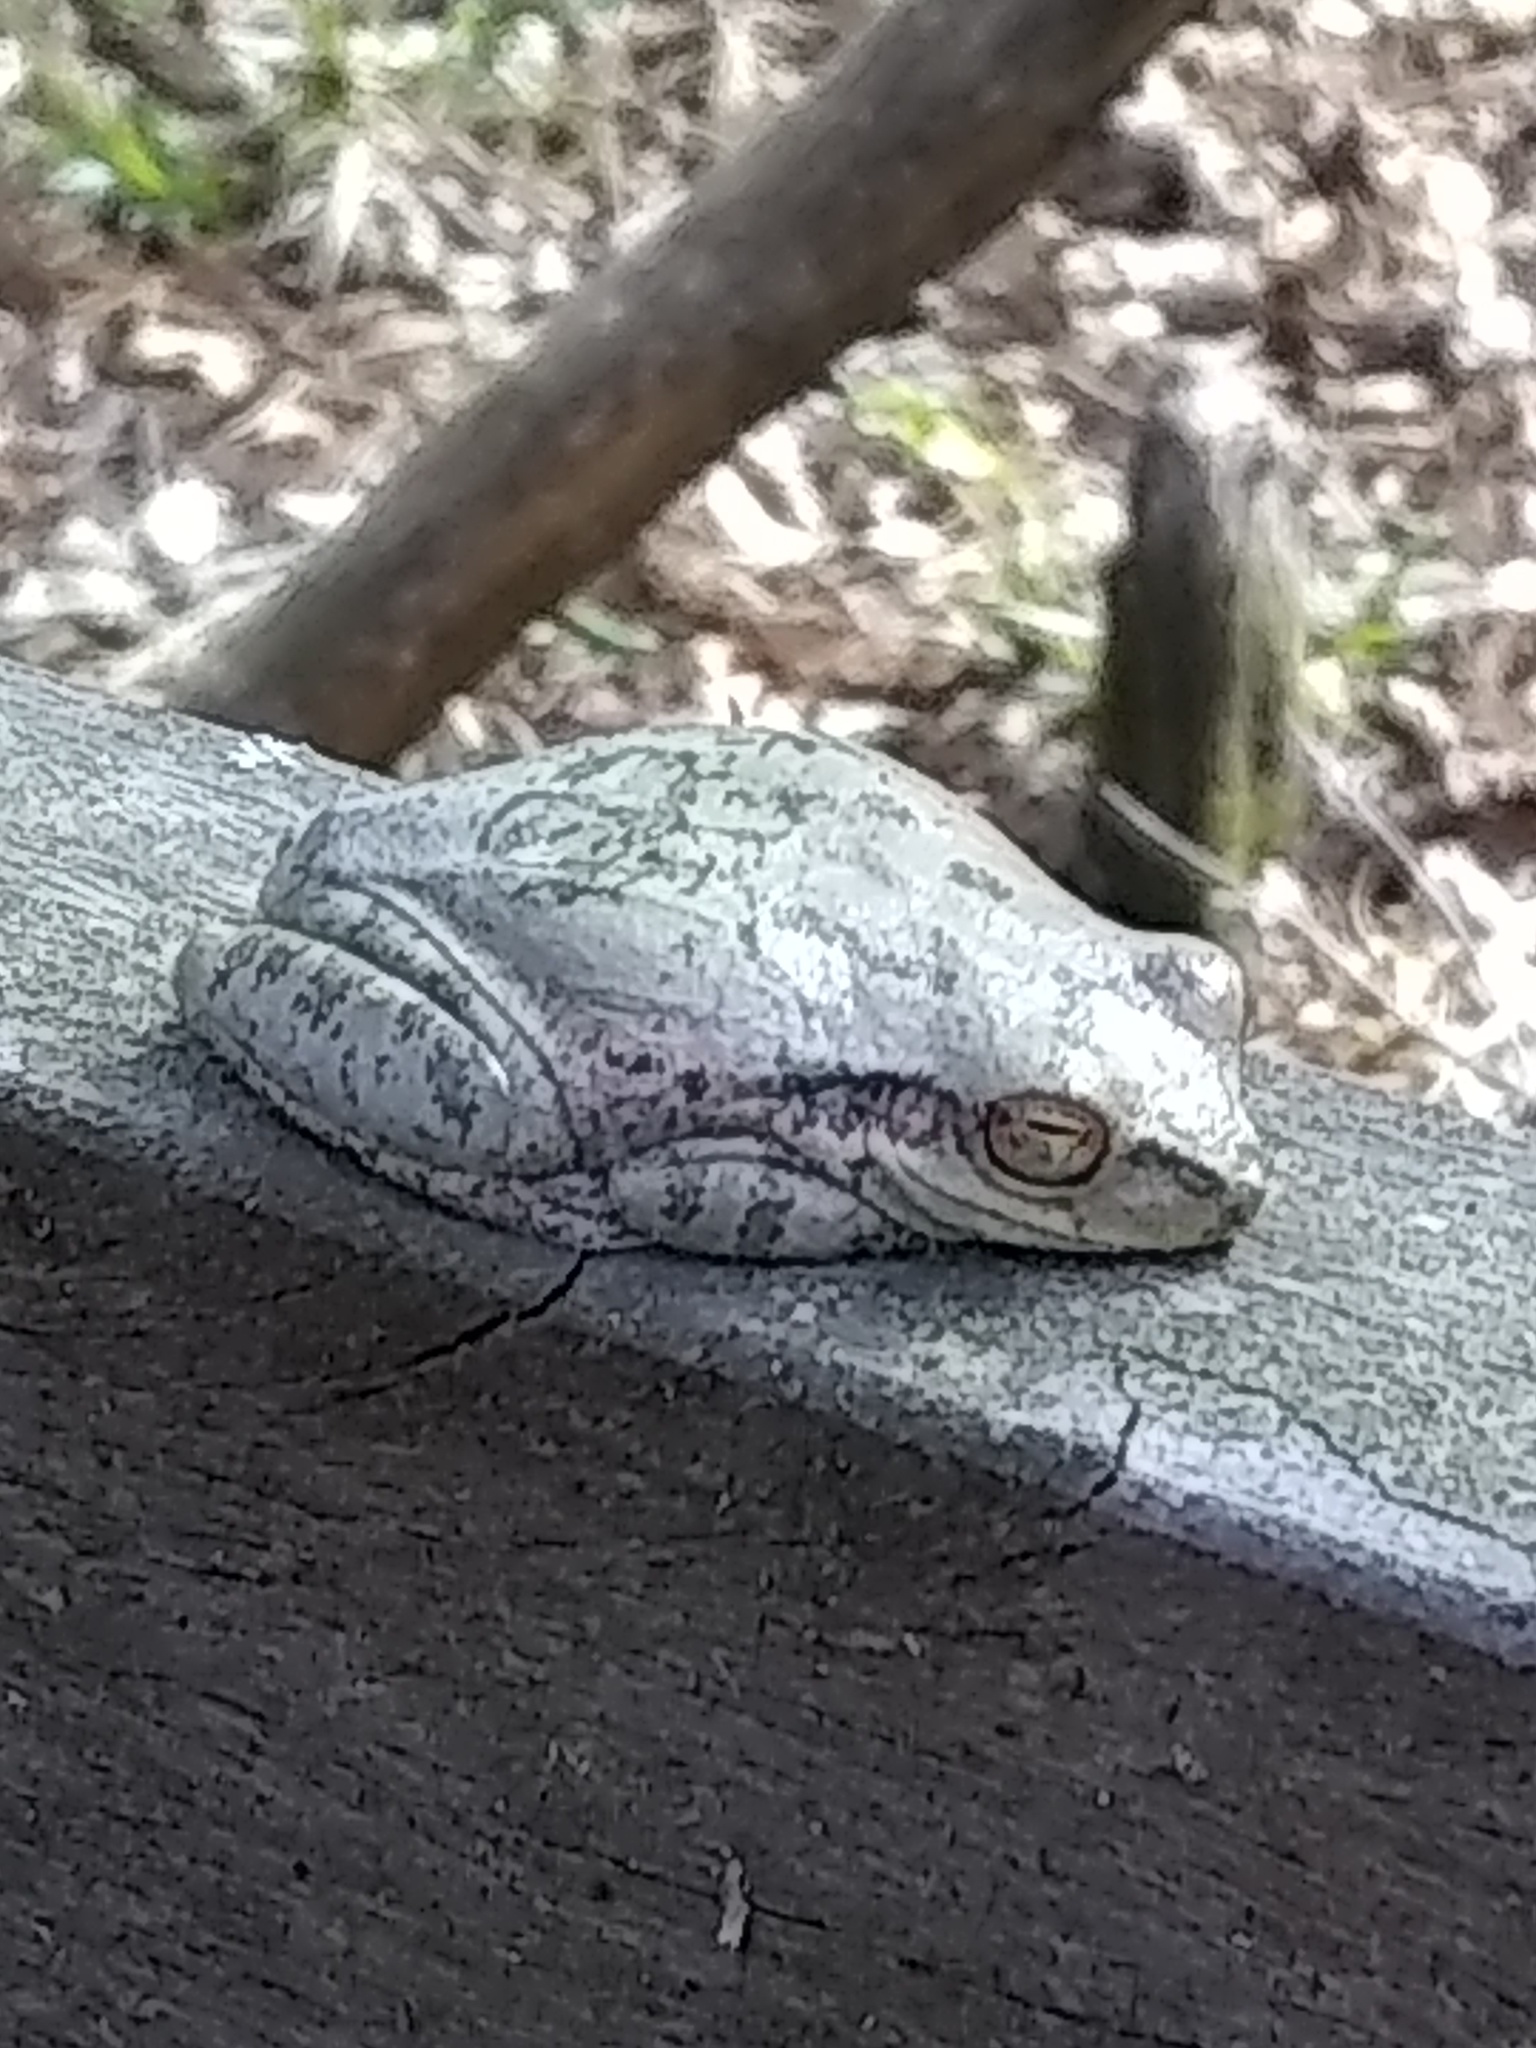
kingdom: Animalia
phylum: Chordata
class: Amphibia
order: Anura
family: Hylidae
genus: Dryophytes
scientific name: Dryophytes squirellus
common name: Squirrel treefrog
